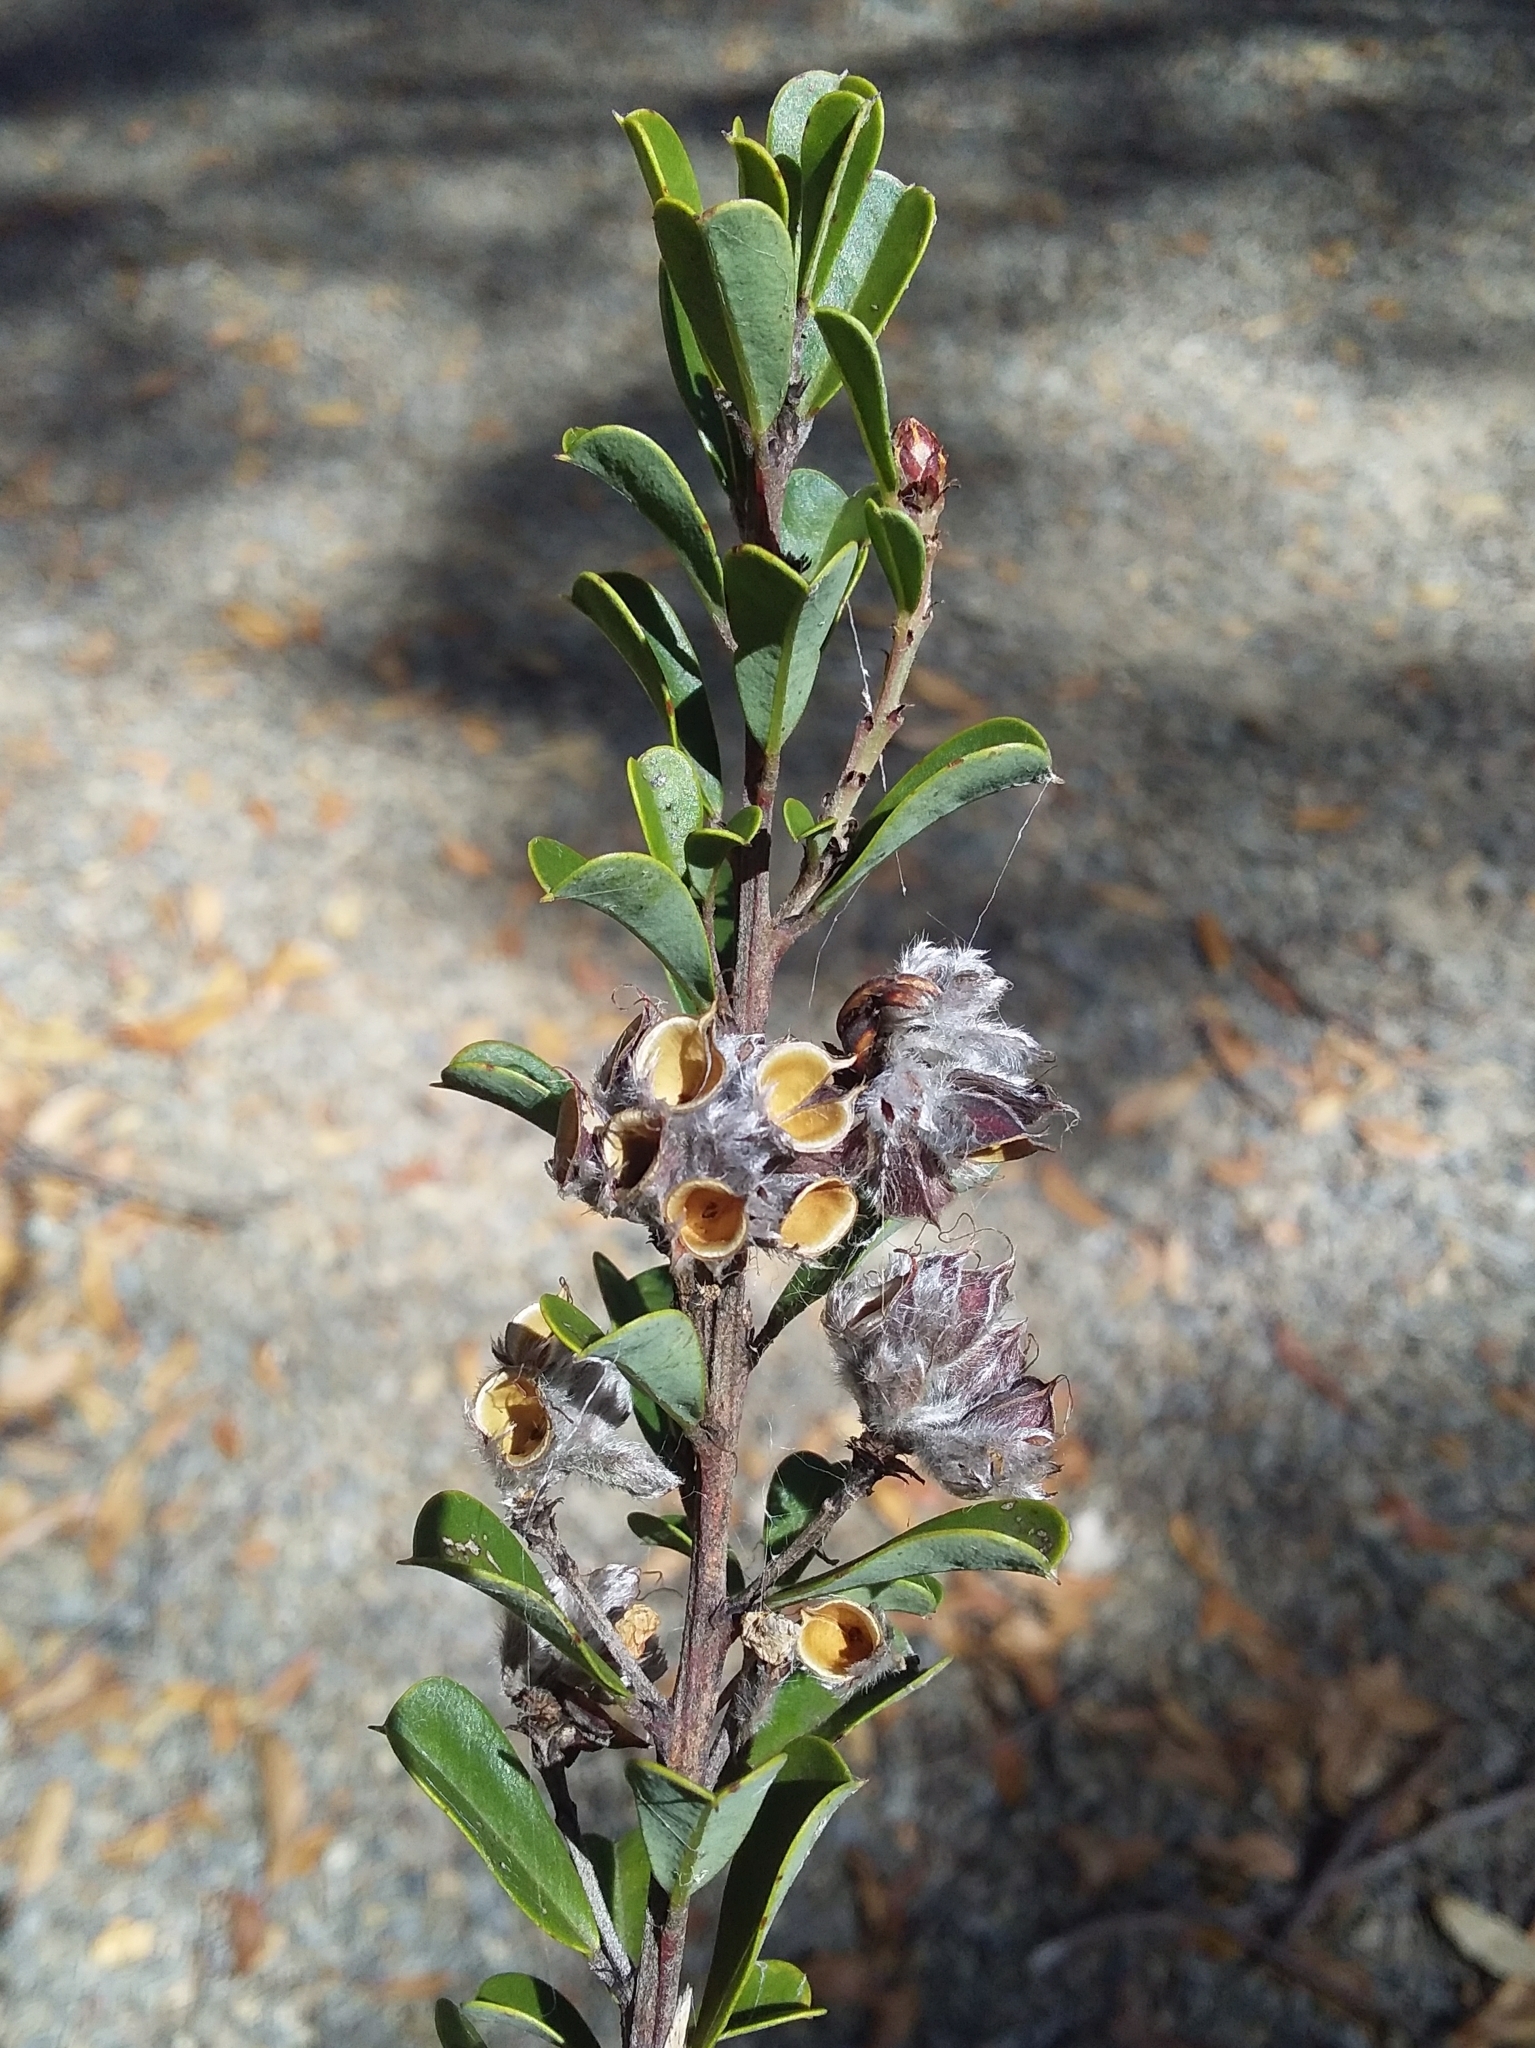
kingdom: Plantae
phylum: Tracheophyta
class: Magnoliopsida
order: Fabales
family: Fabaceae
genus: Pultenaea
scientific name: Pultenaea daphnoides
